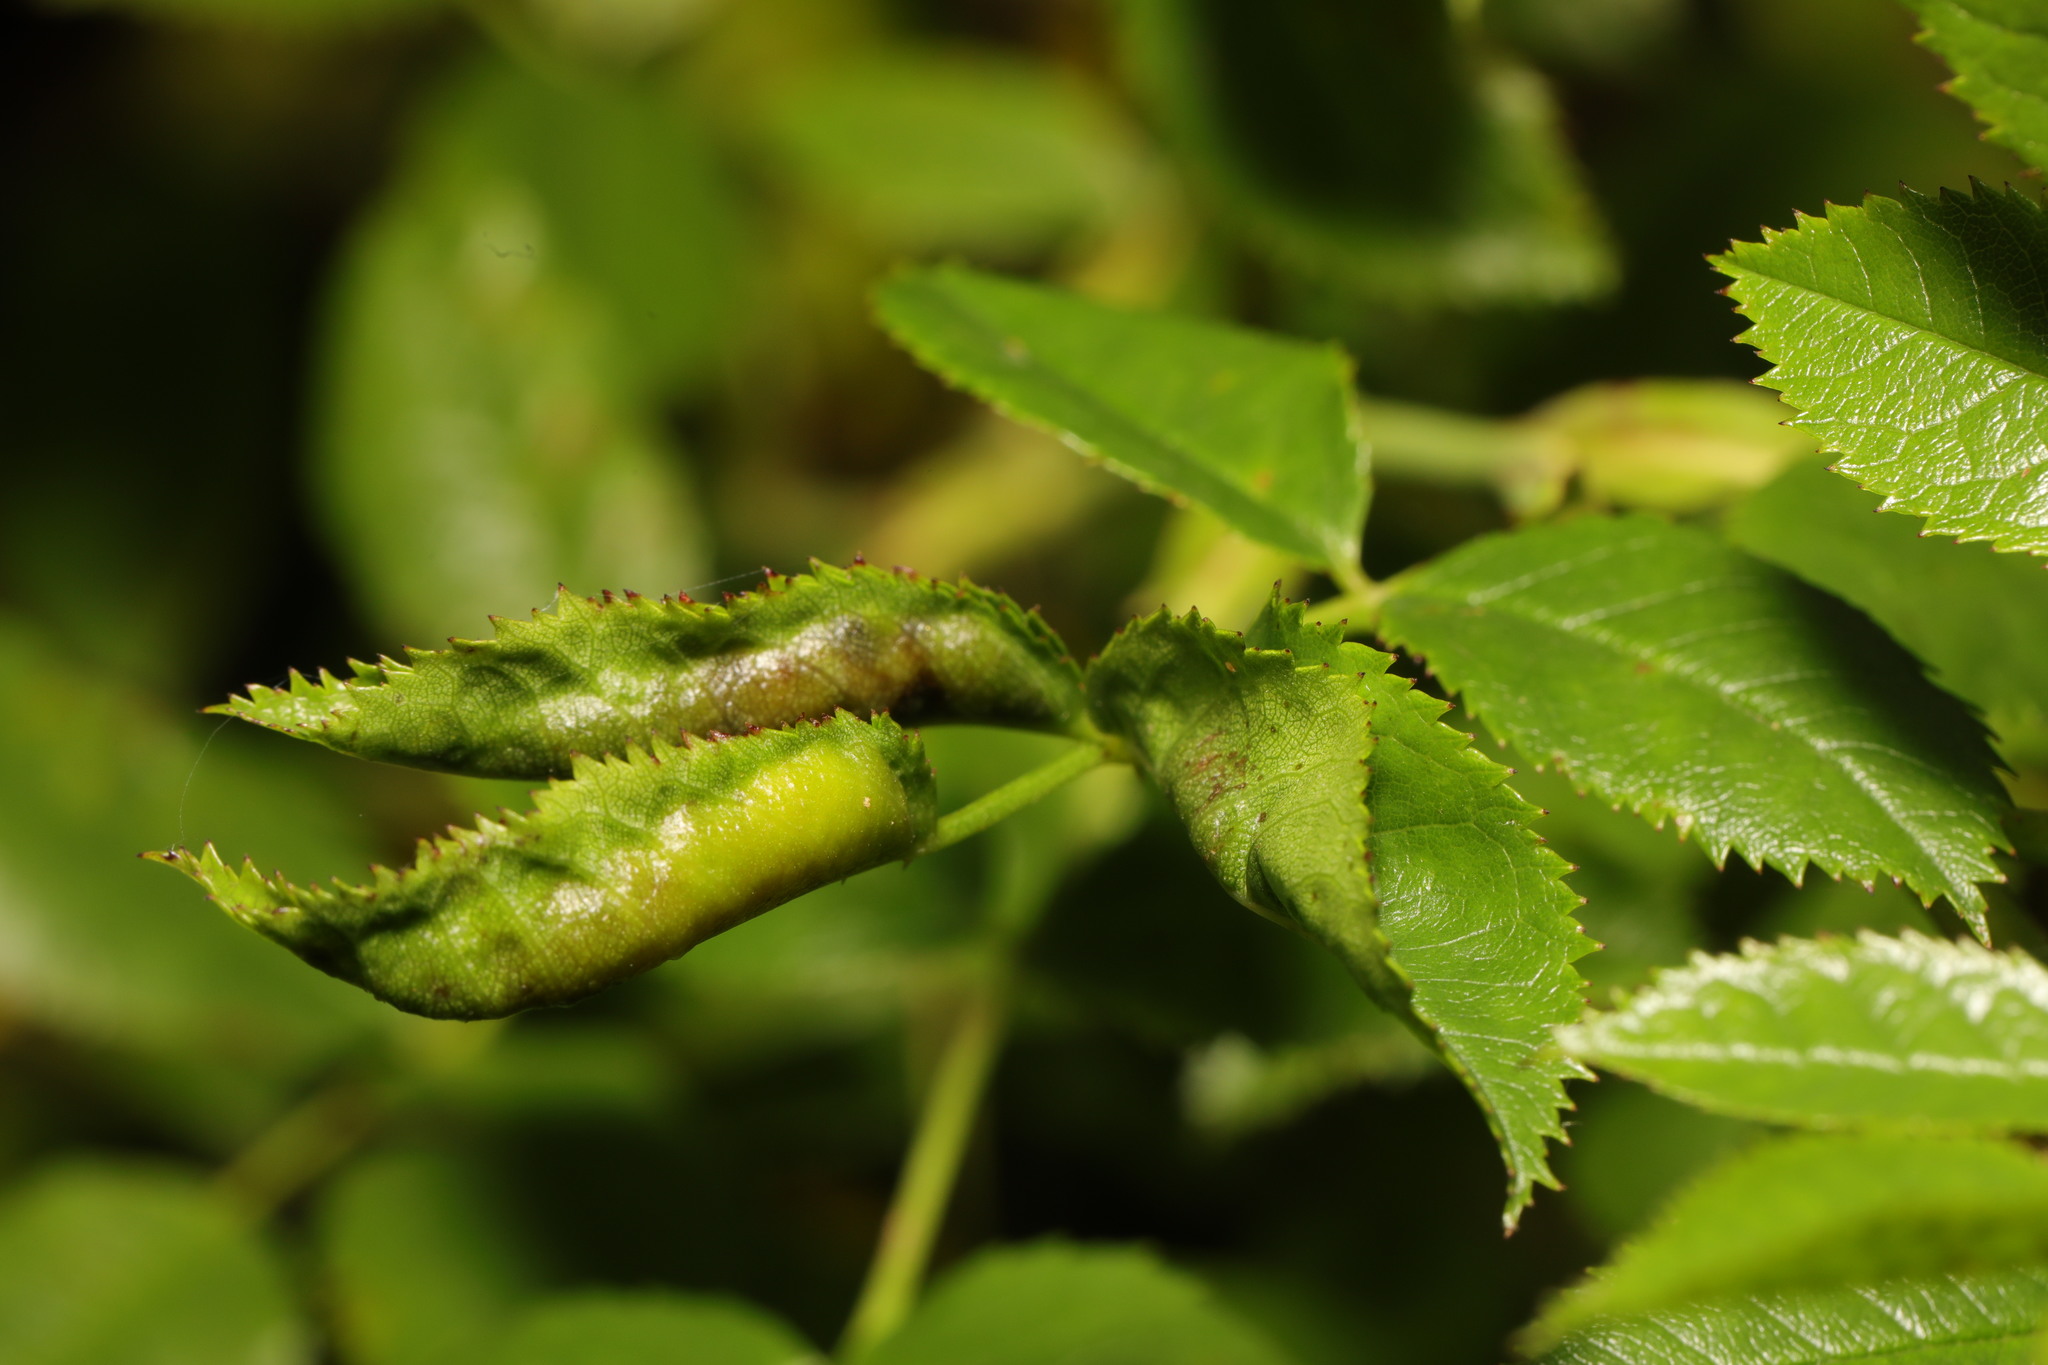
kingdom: Animalia
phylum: Arthropoda
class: Insecta
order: Diptera
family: Cecidomyiidae
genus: Wachtliella
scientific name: Wachtliella rosae
